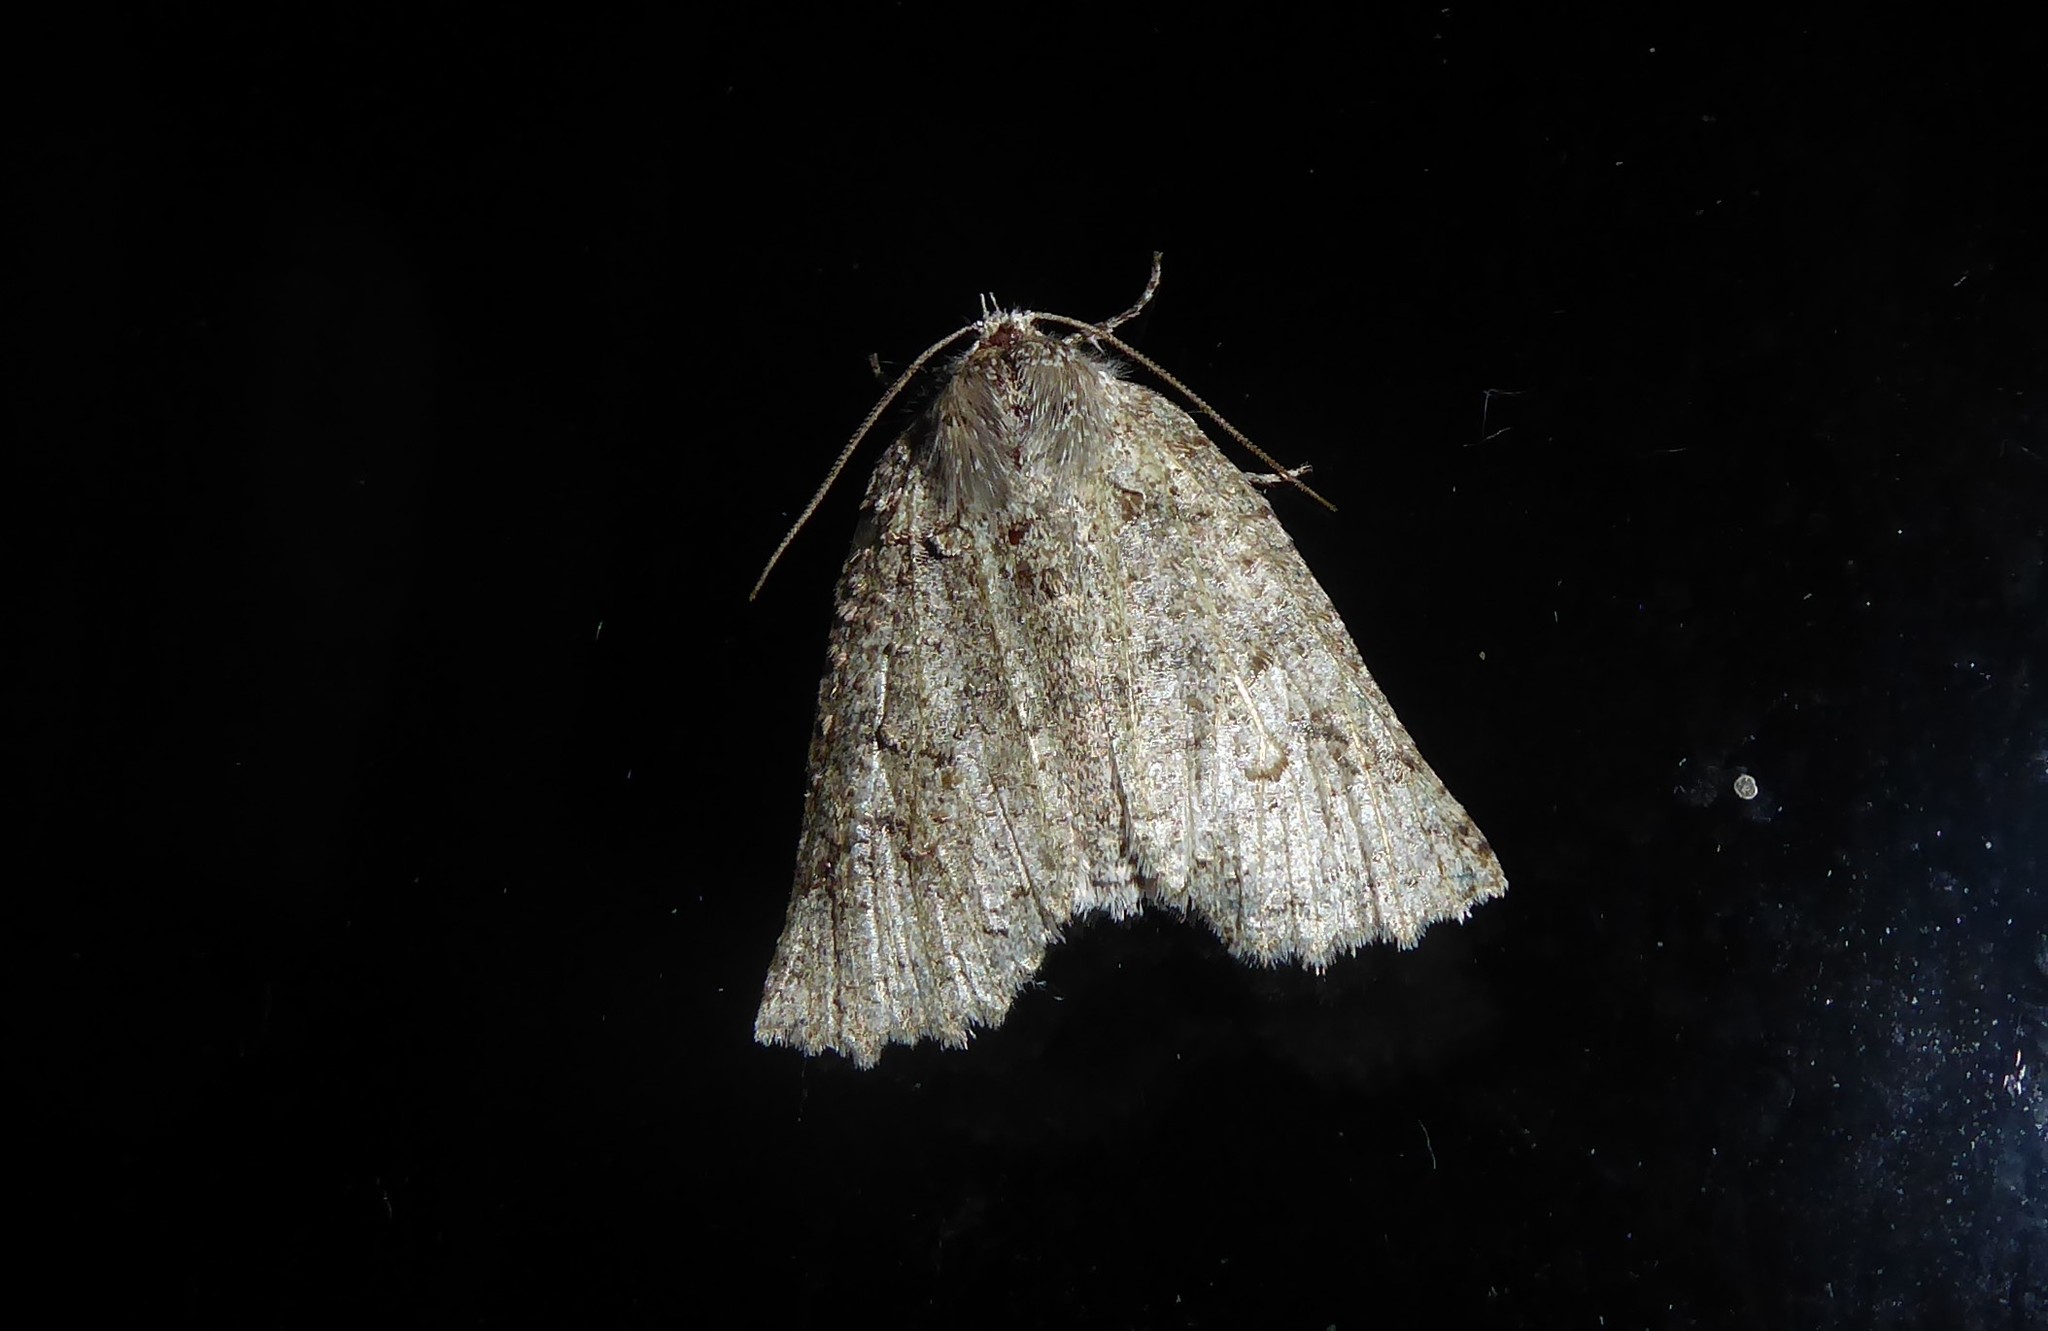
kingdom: Animalia
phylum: Arthropoda
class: Insecta
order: Lepidoptera
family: Geometridae
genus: Declana
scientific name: Declana floccosa
